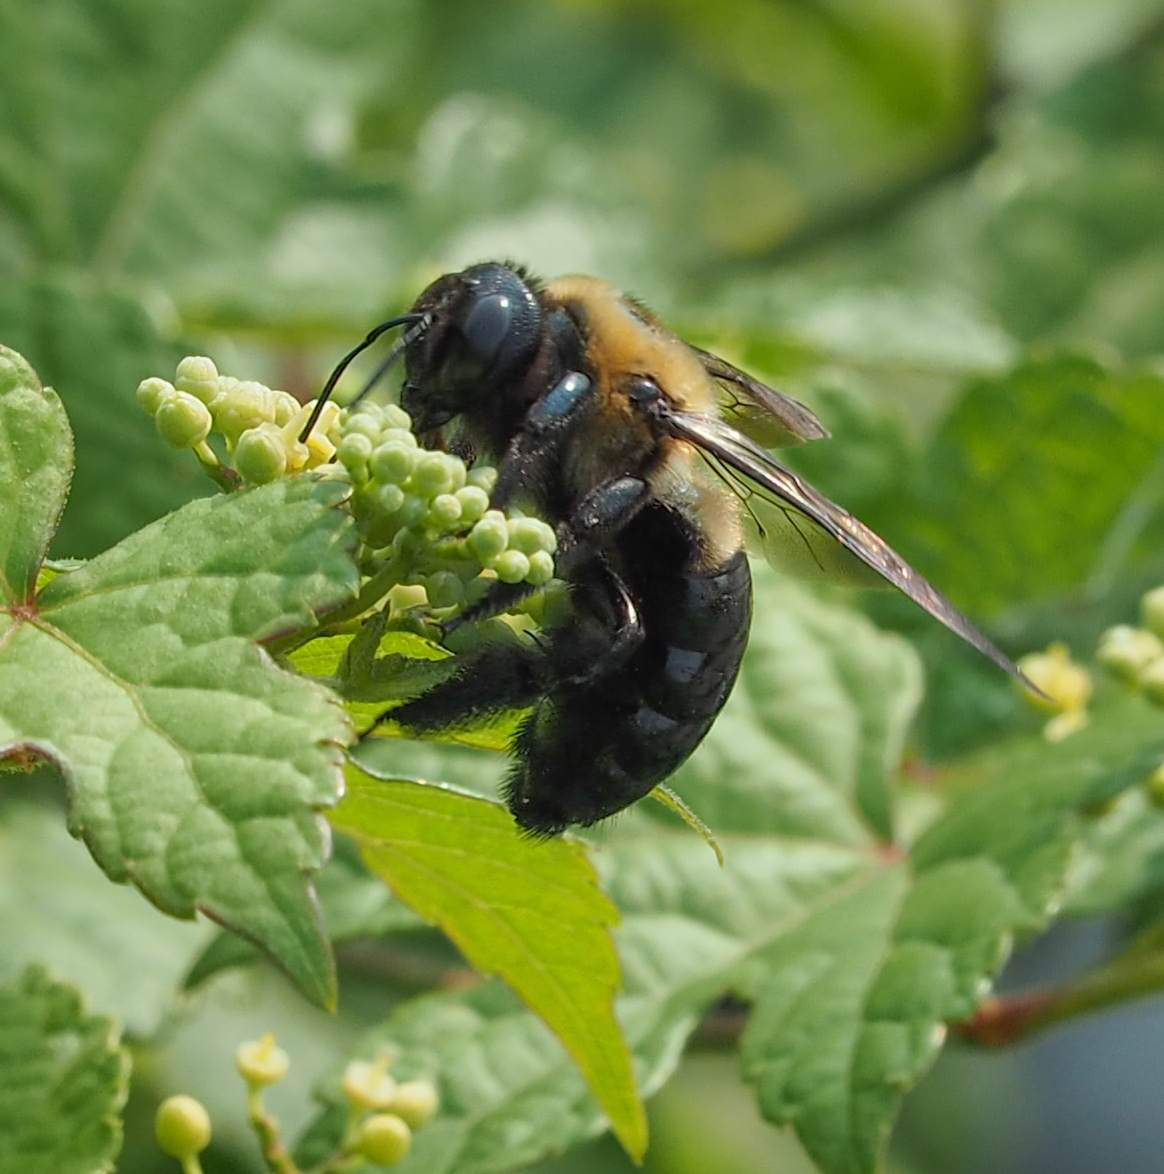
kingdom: Animalia
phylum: Arthropoda
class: Insecta
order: Hymenoptera
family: Apidae
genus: Xylocopa
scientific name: Xylocopa virginica
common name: Carpenter bee
